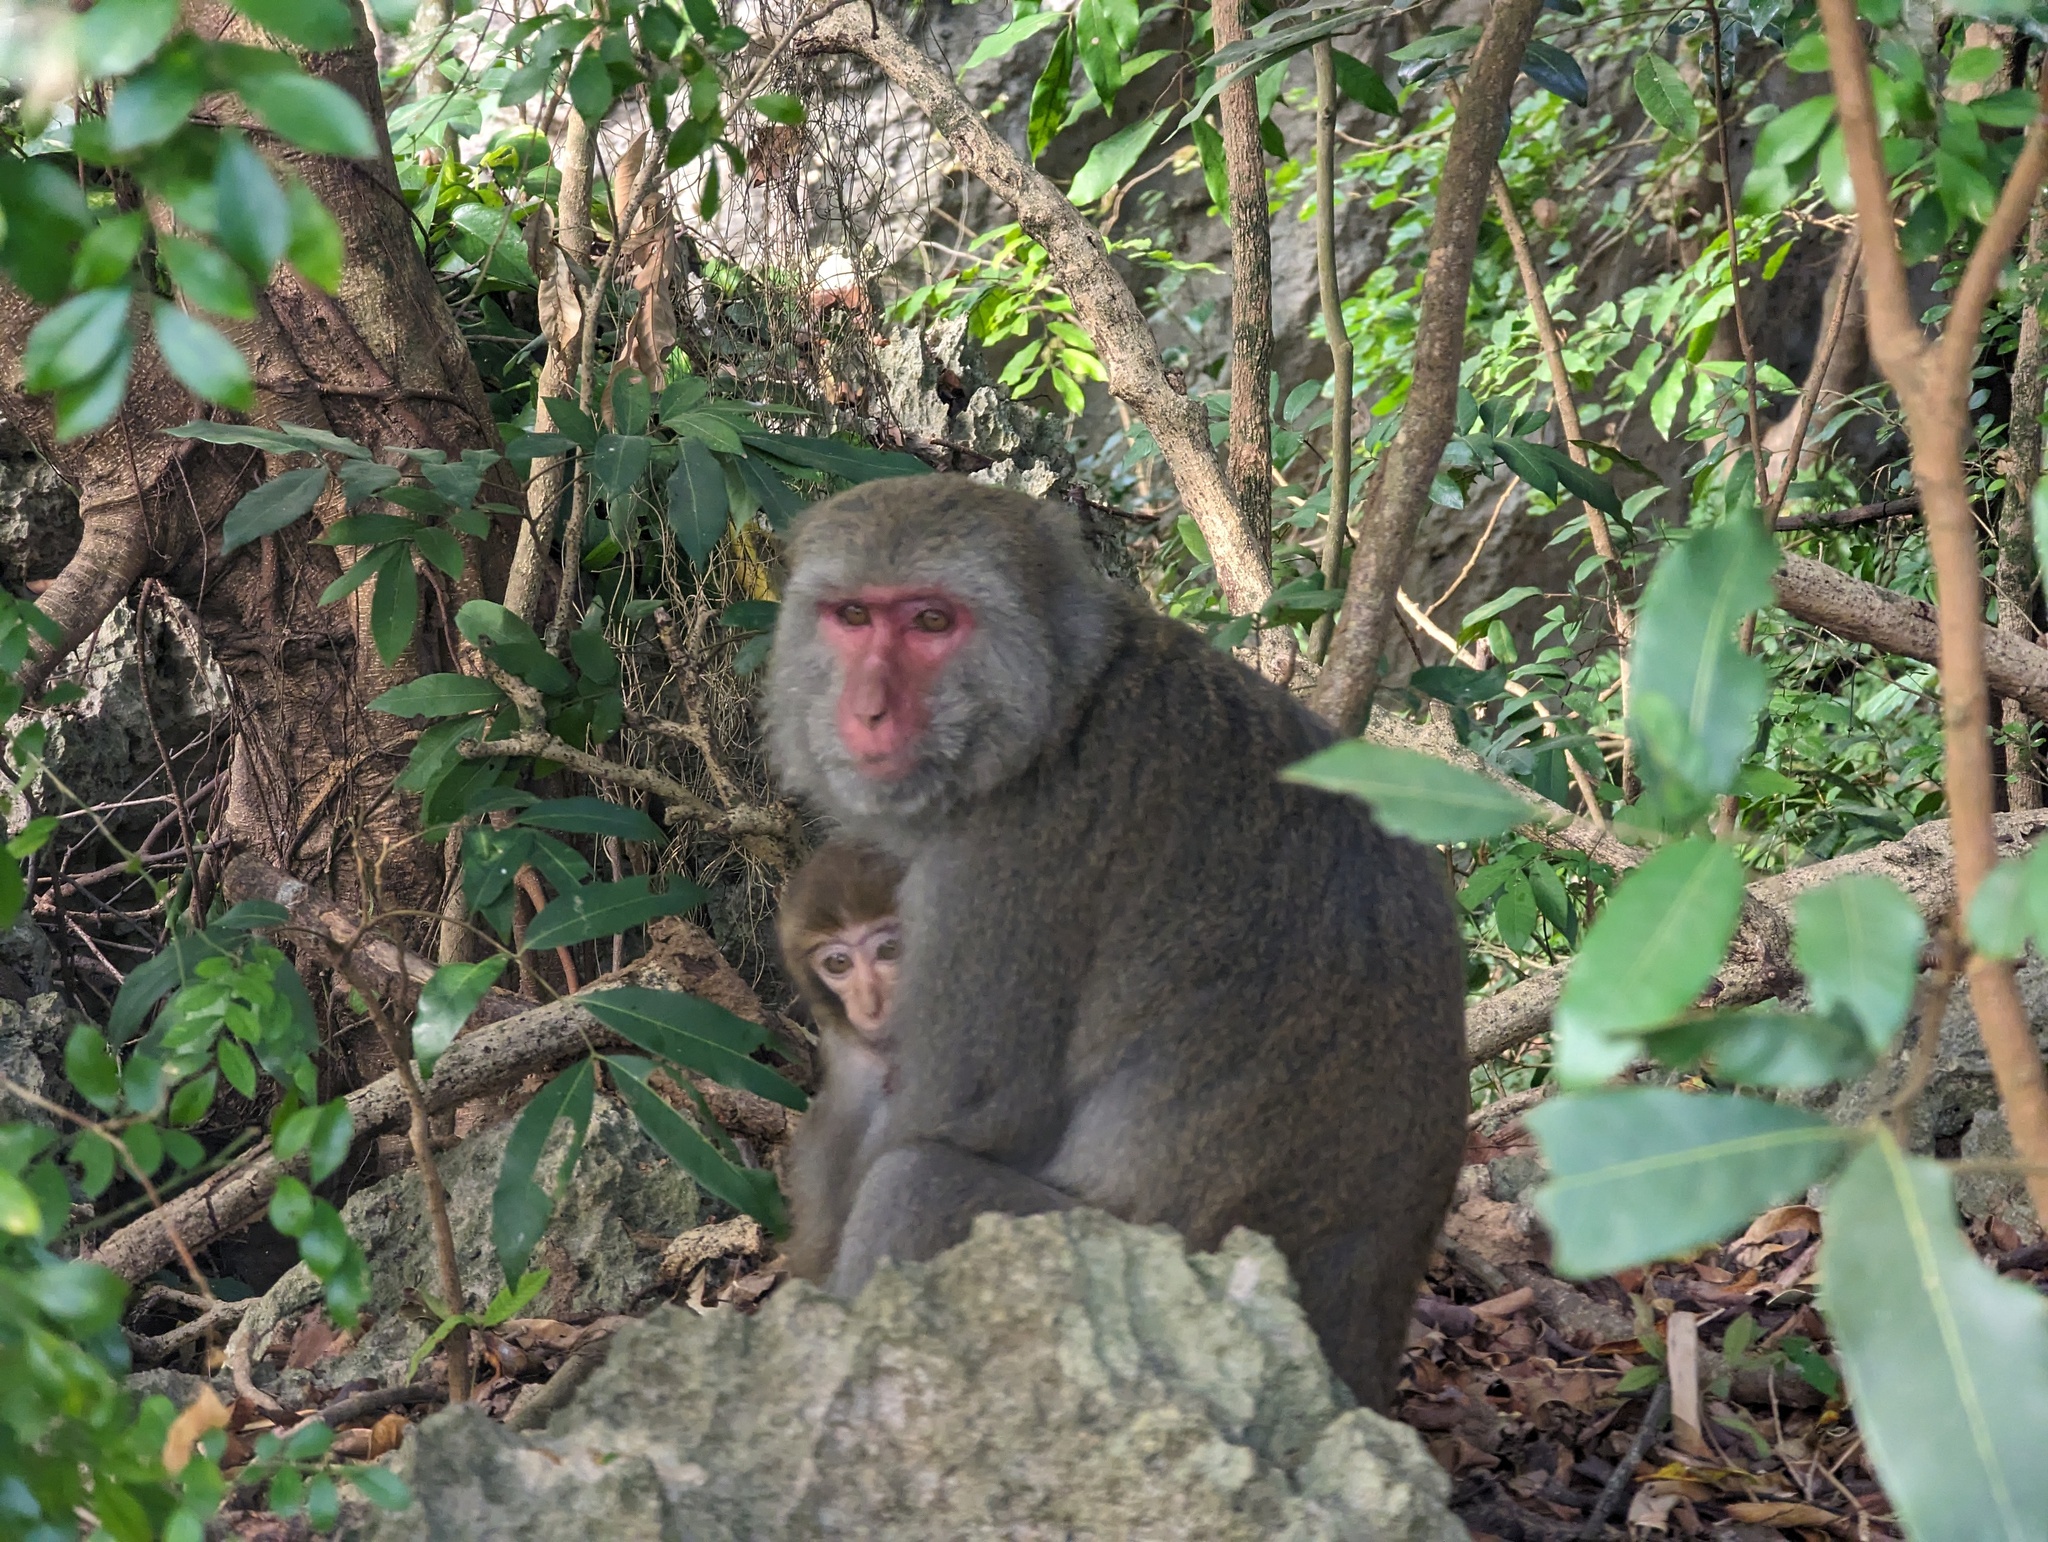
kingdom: Animalia
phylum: Chordata
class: Mammalia
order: Primates
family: Cercopithecidae
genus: Macaca
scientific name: Macaca cyclopis
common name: Formosan rock macaque
